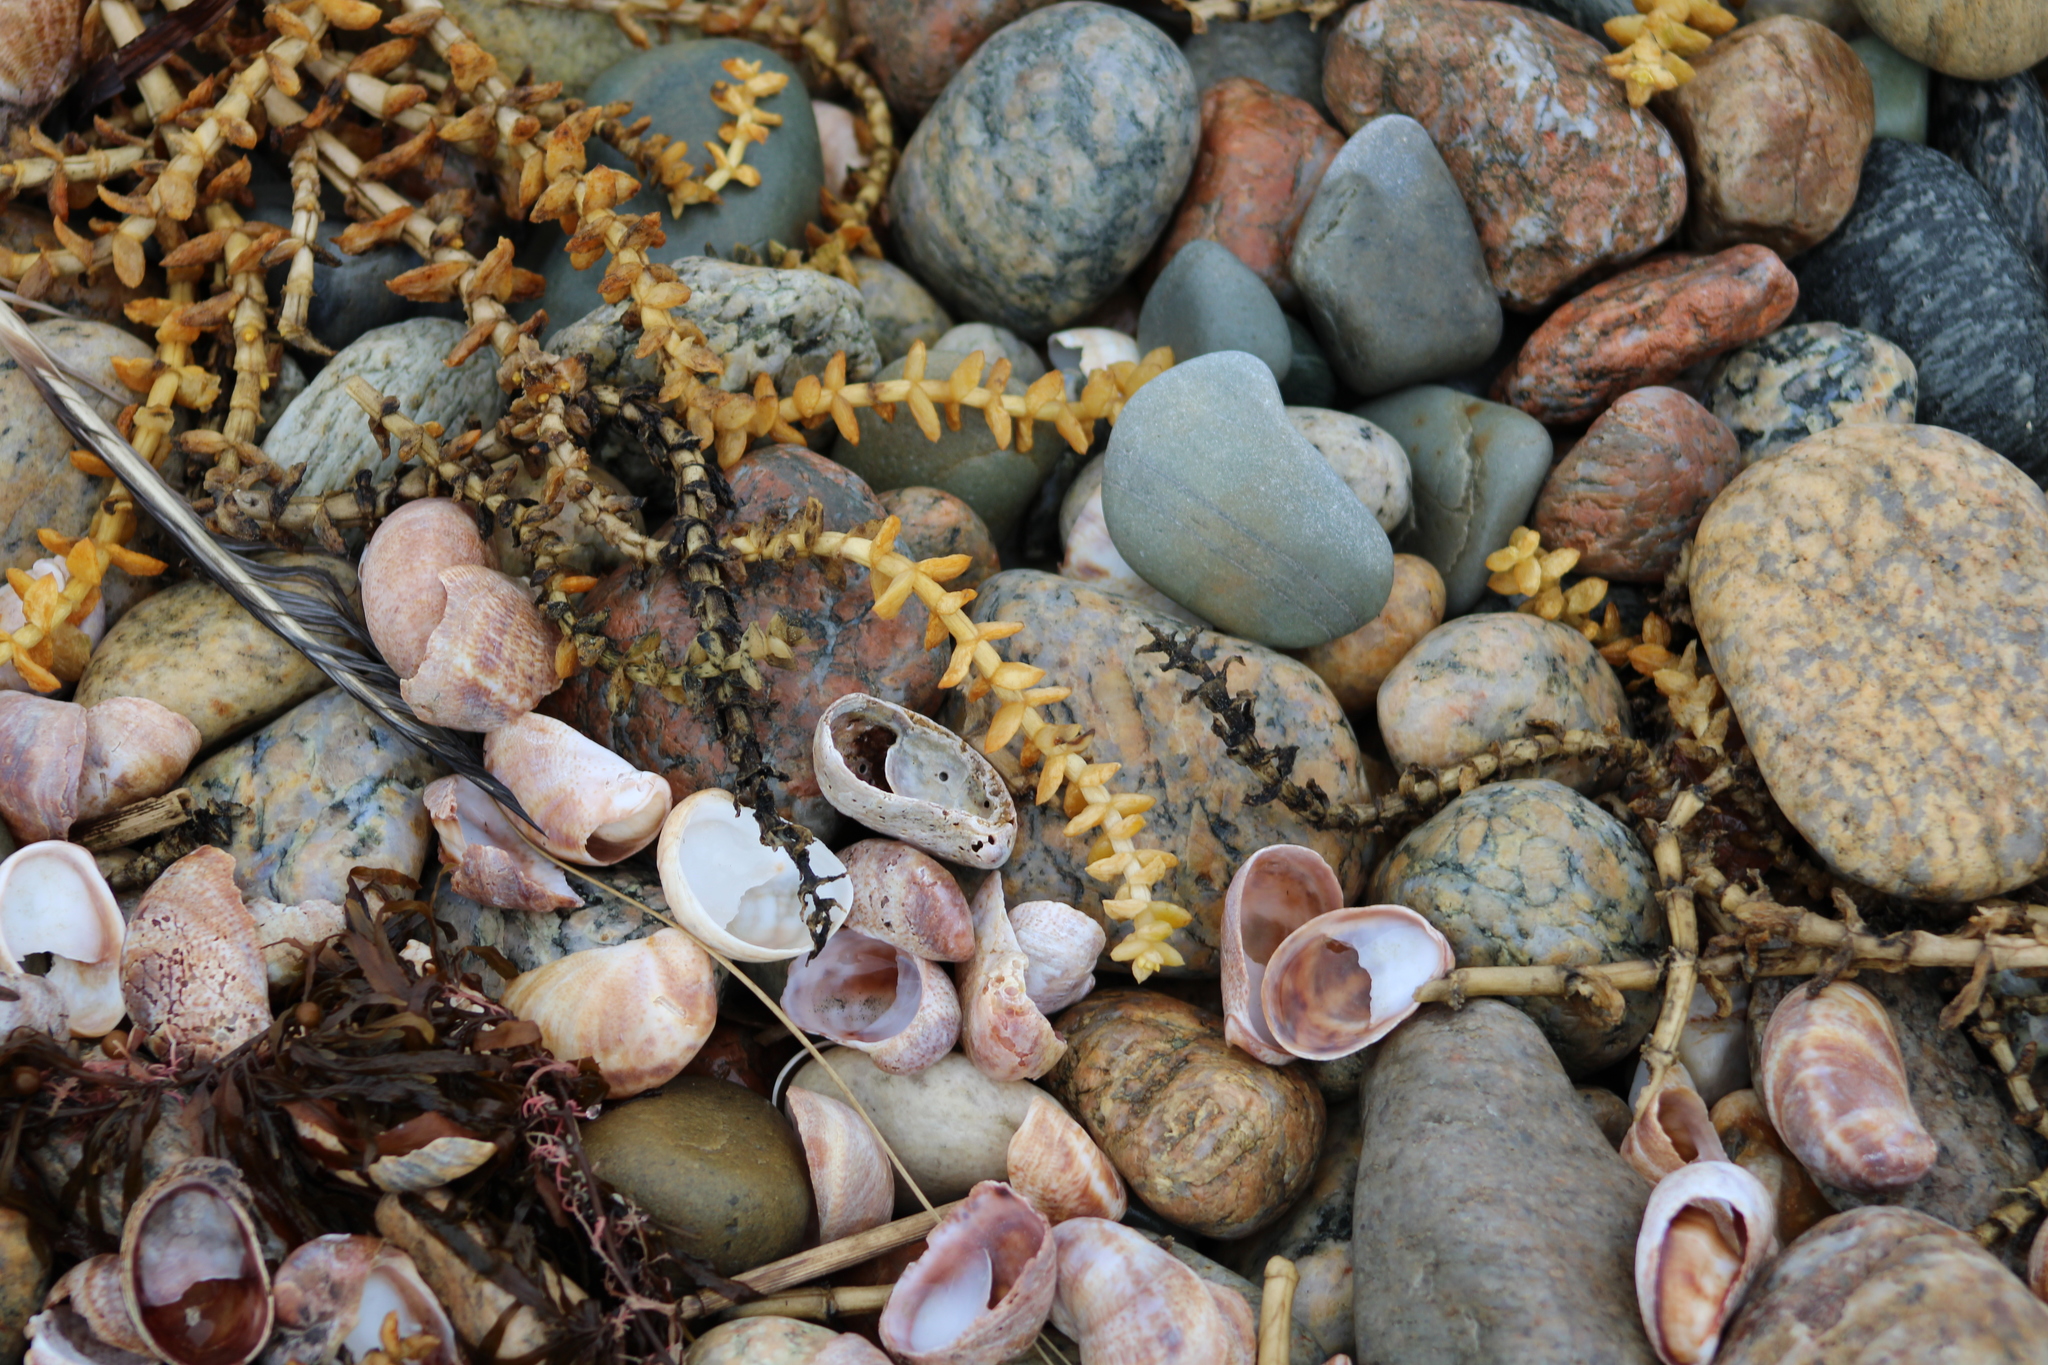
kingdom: Plantae
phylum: Tracheophyta
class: Magnoliopsida
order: Caryophyllales
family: Caryophyllaceae
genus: Honckenya
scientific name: Honckenya peploides
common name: Sea sandwort
